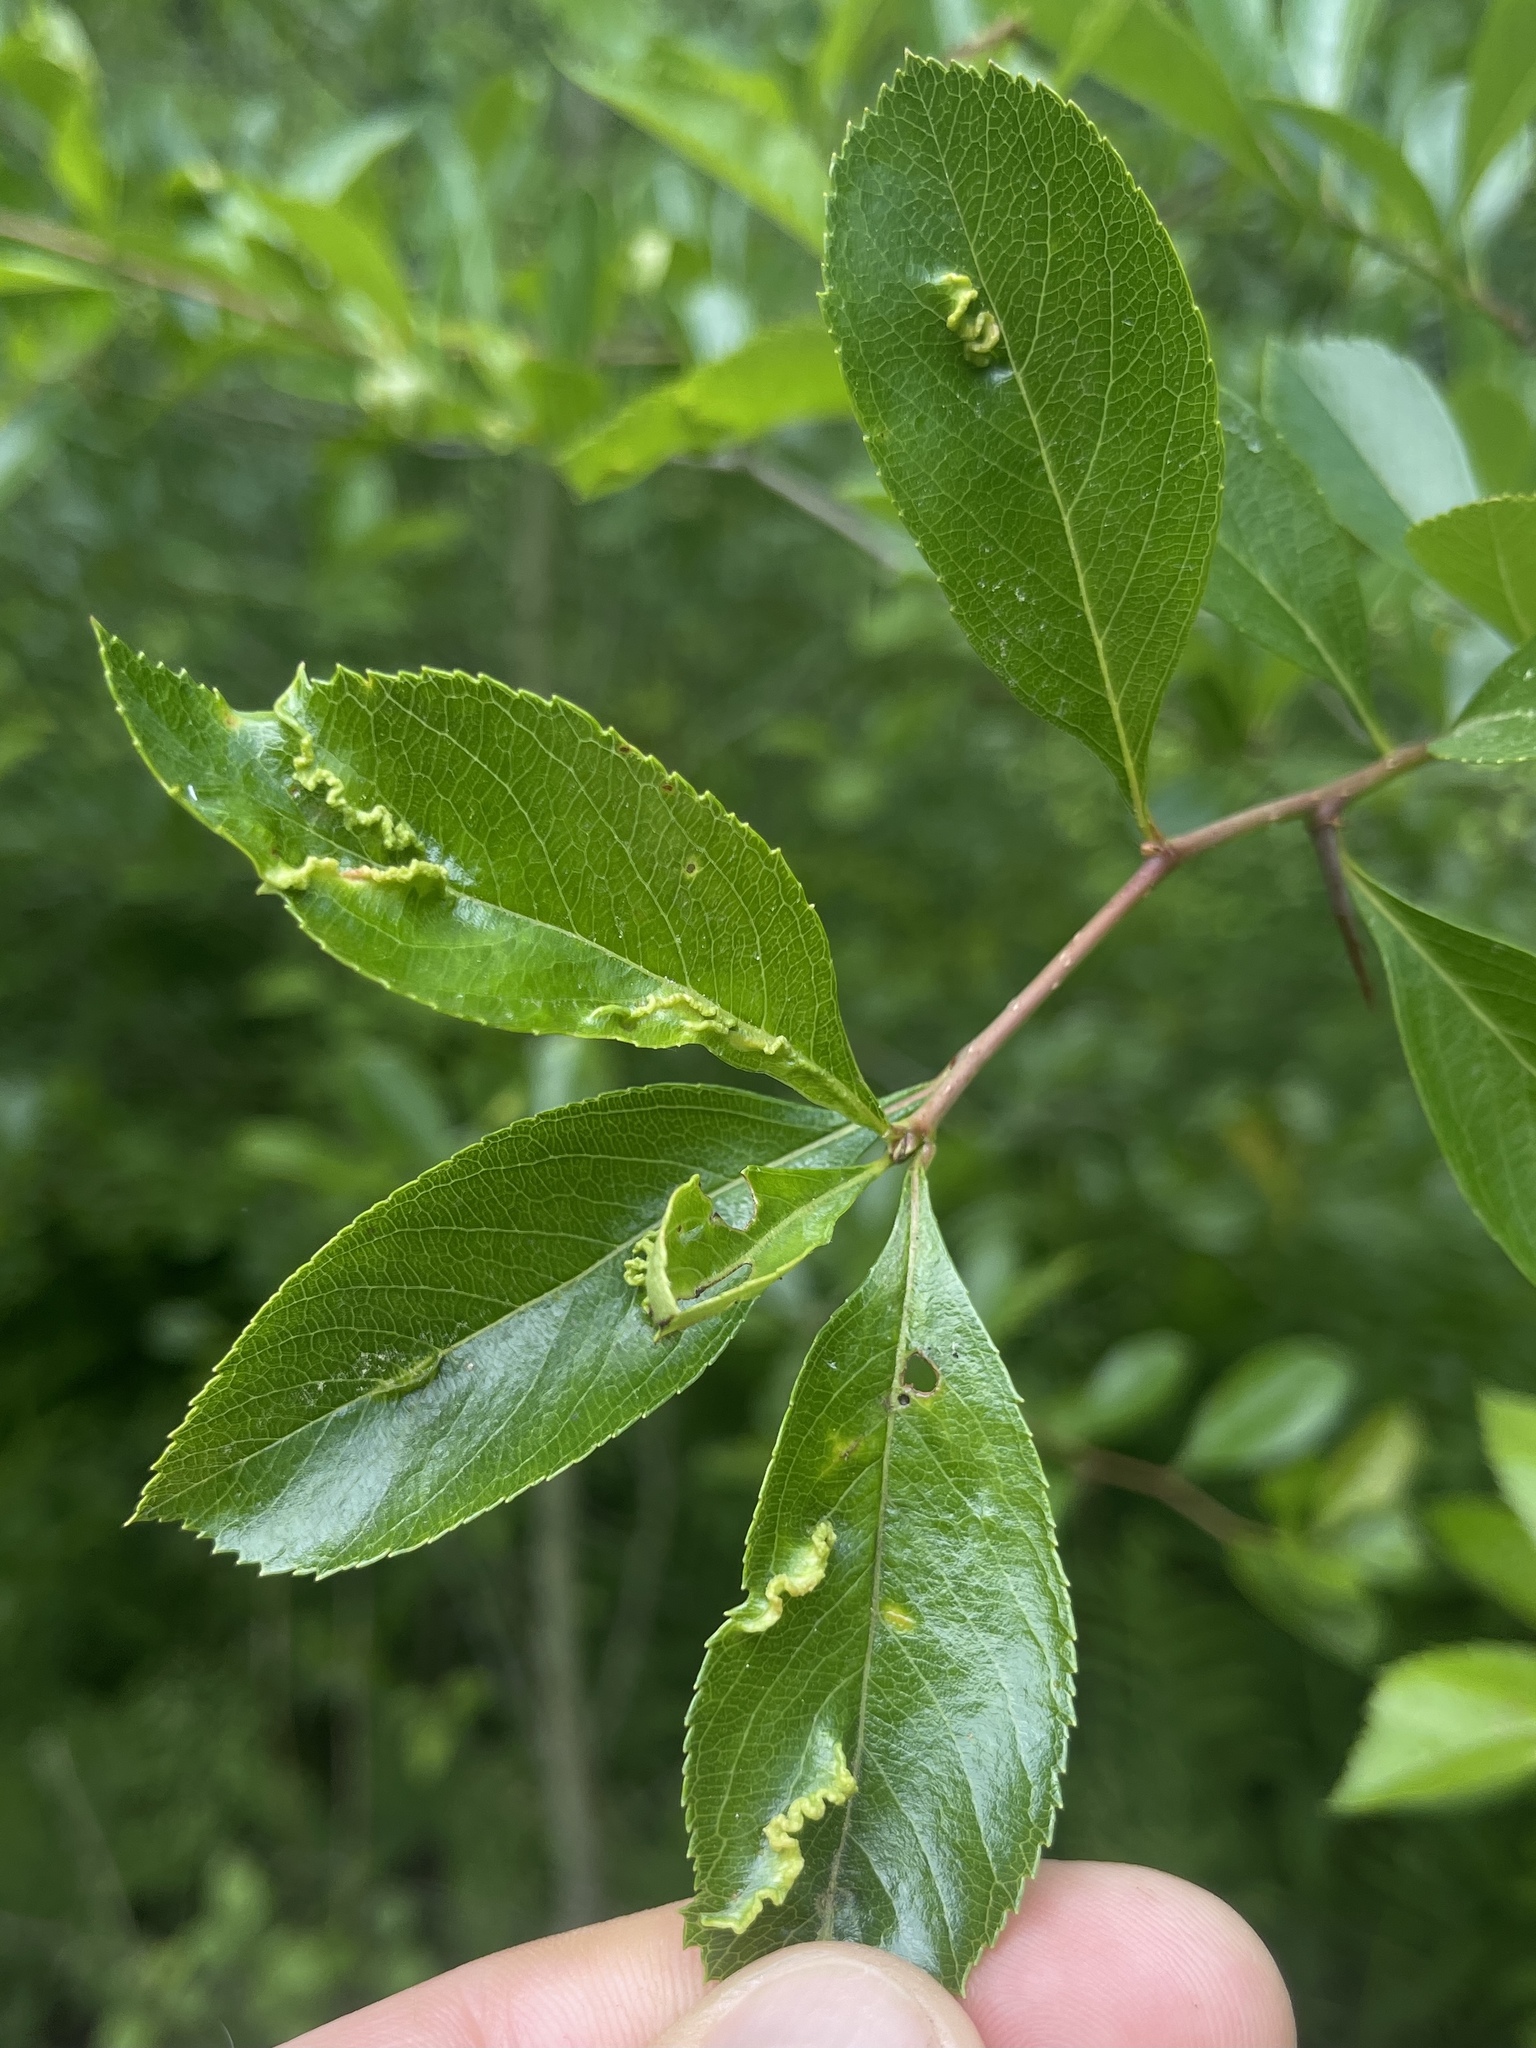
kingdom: Animalia
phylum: Arthropoda
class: Insecta
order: Diptera
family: Cecidomyiidae
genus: Blaesodiplosis
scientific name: Blaesodiplosis crataegifolia
